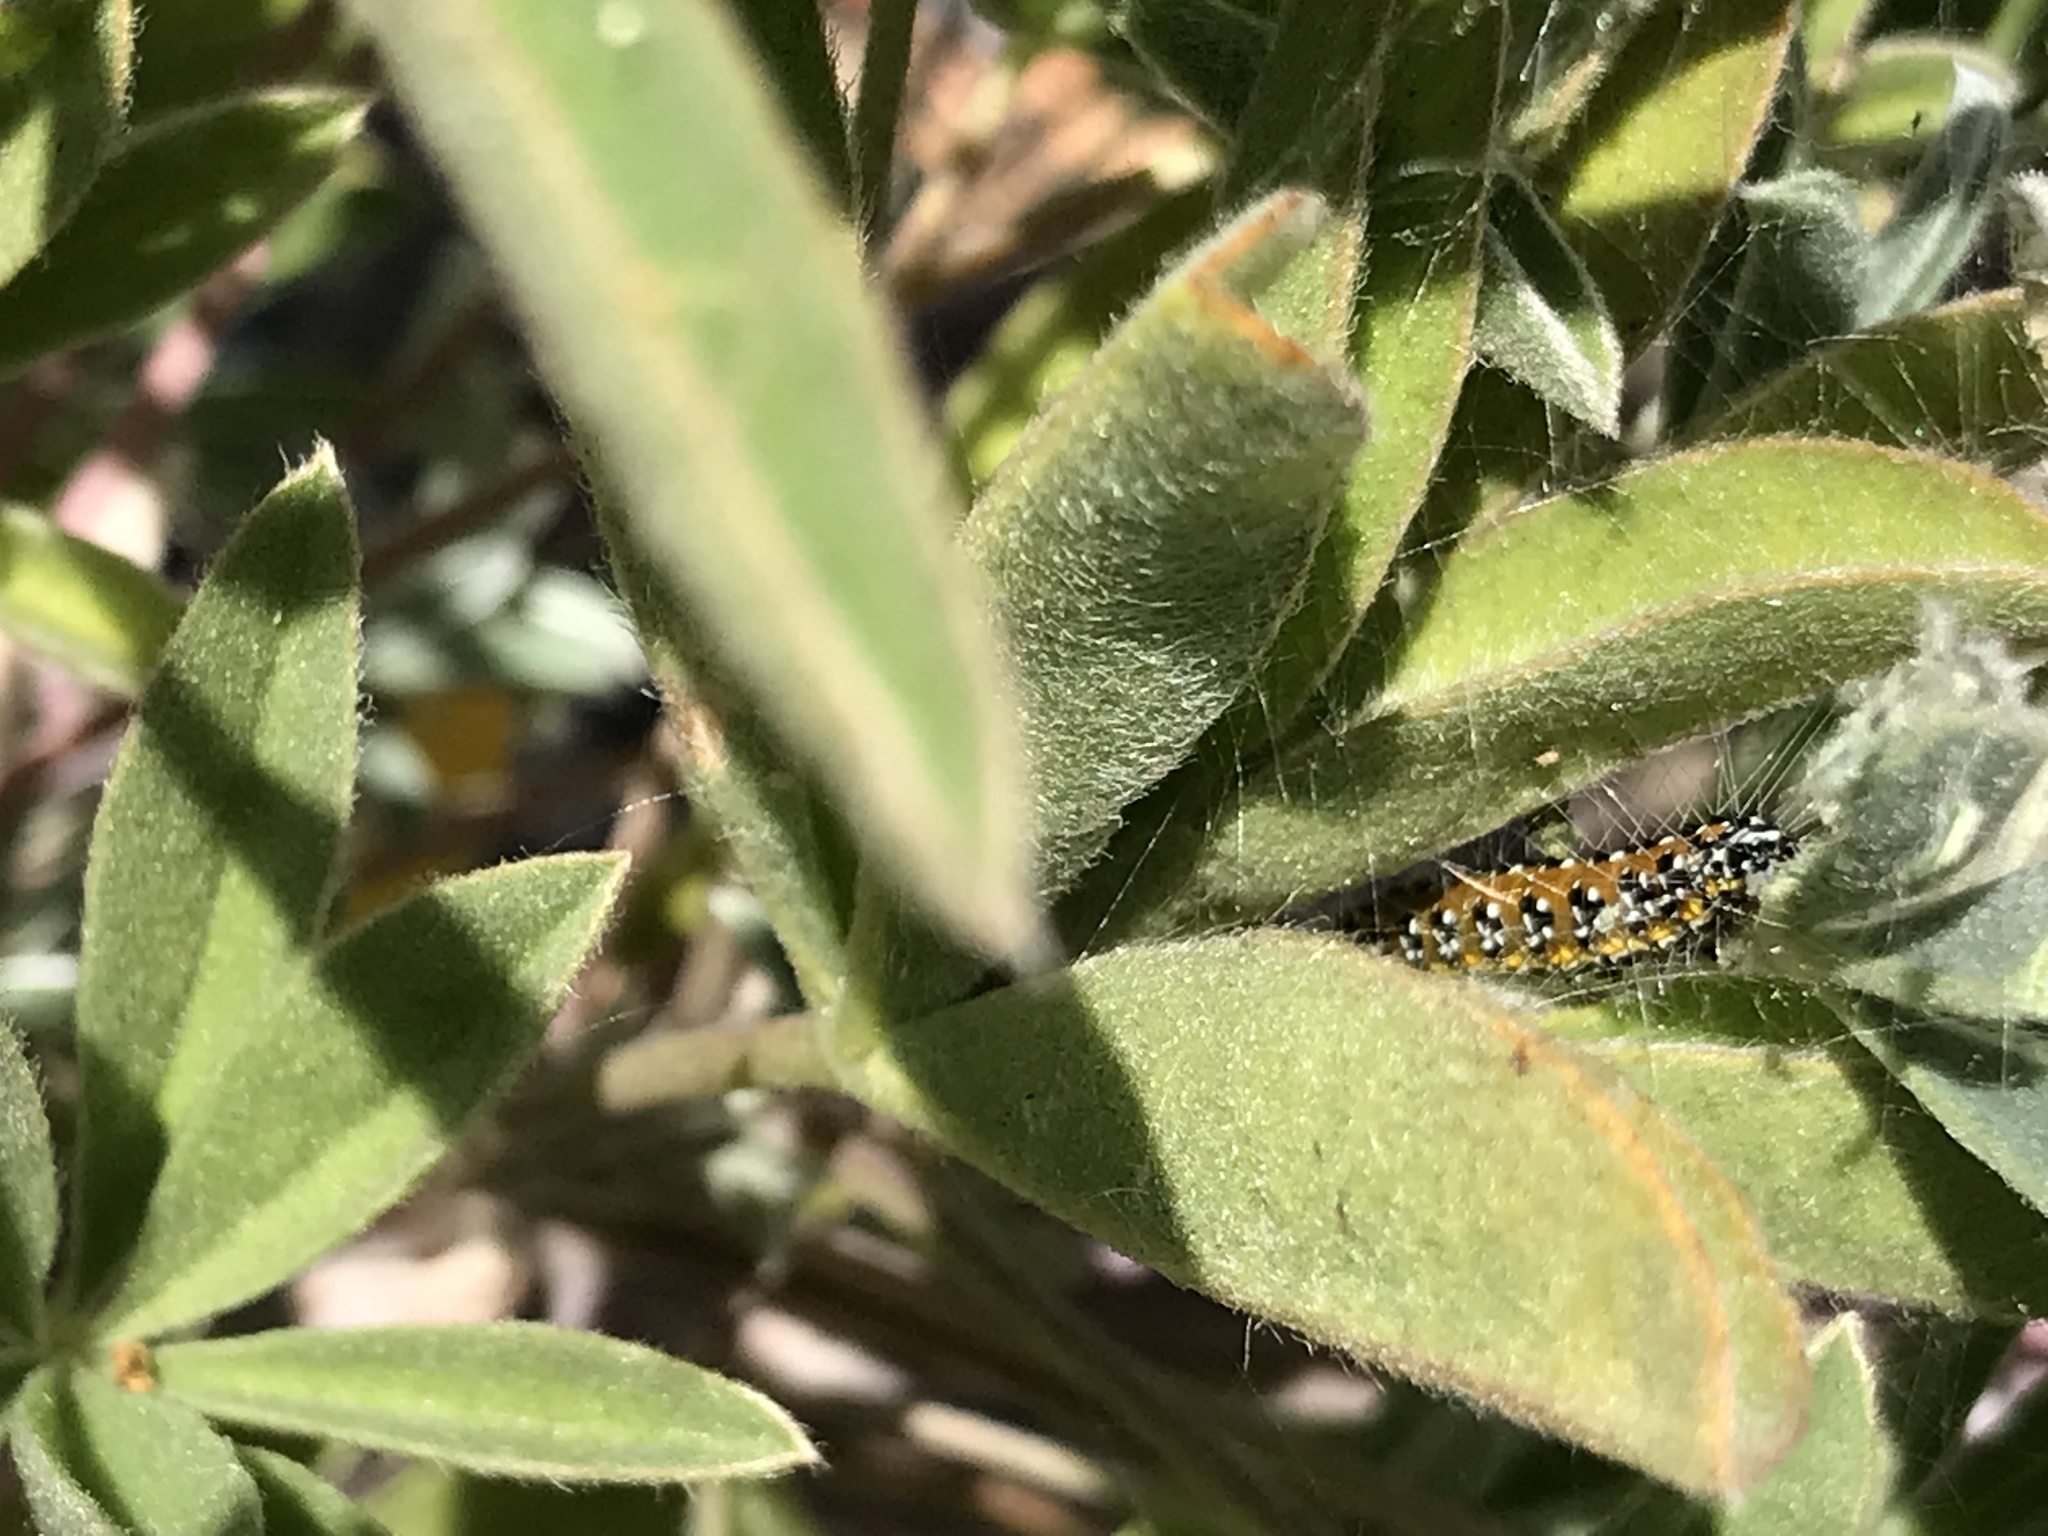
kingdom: Animalia
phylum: Arthropoda
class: Insecta
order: Lepidoptera
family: Crambidae
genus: Uresiphita
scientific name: Uresiphita reversalis
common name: Genista broom moth
